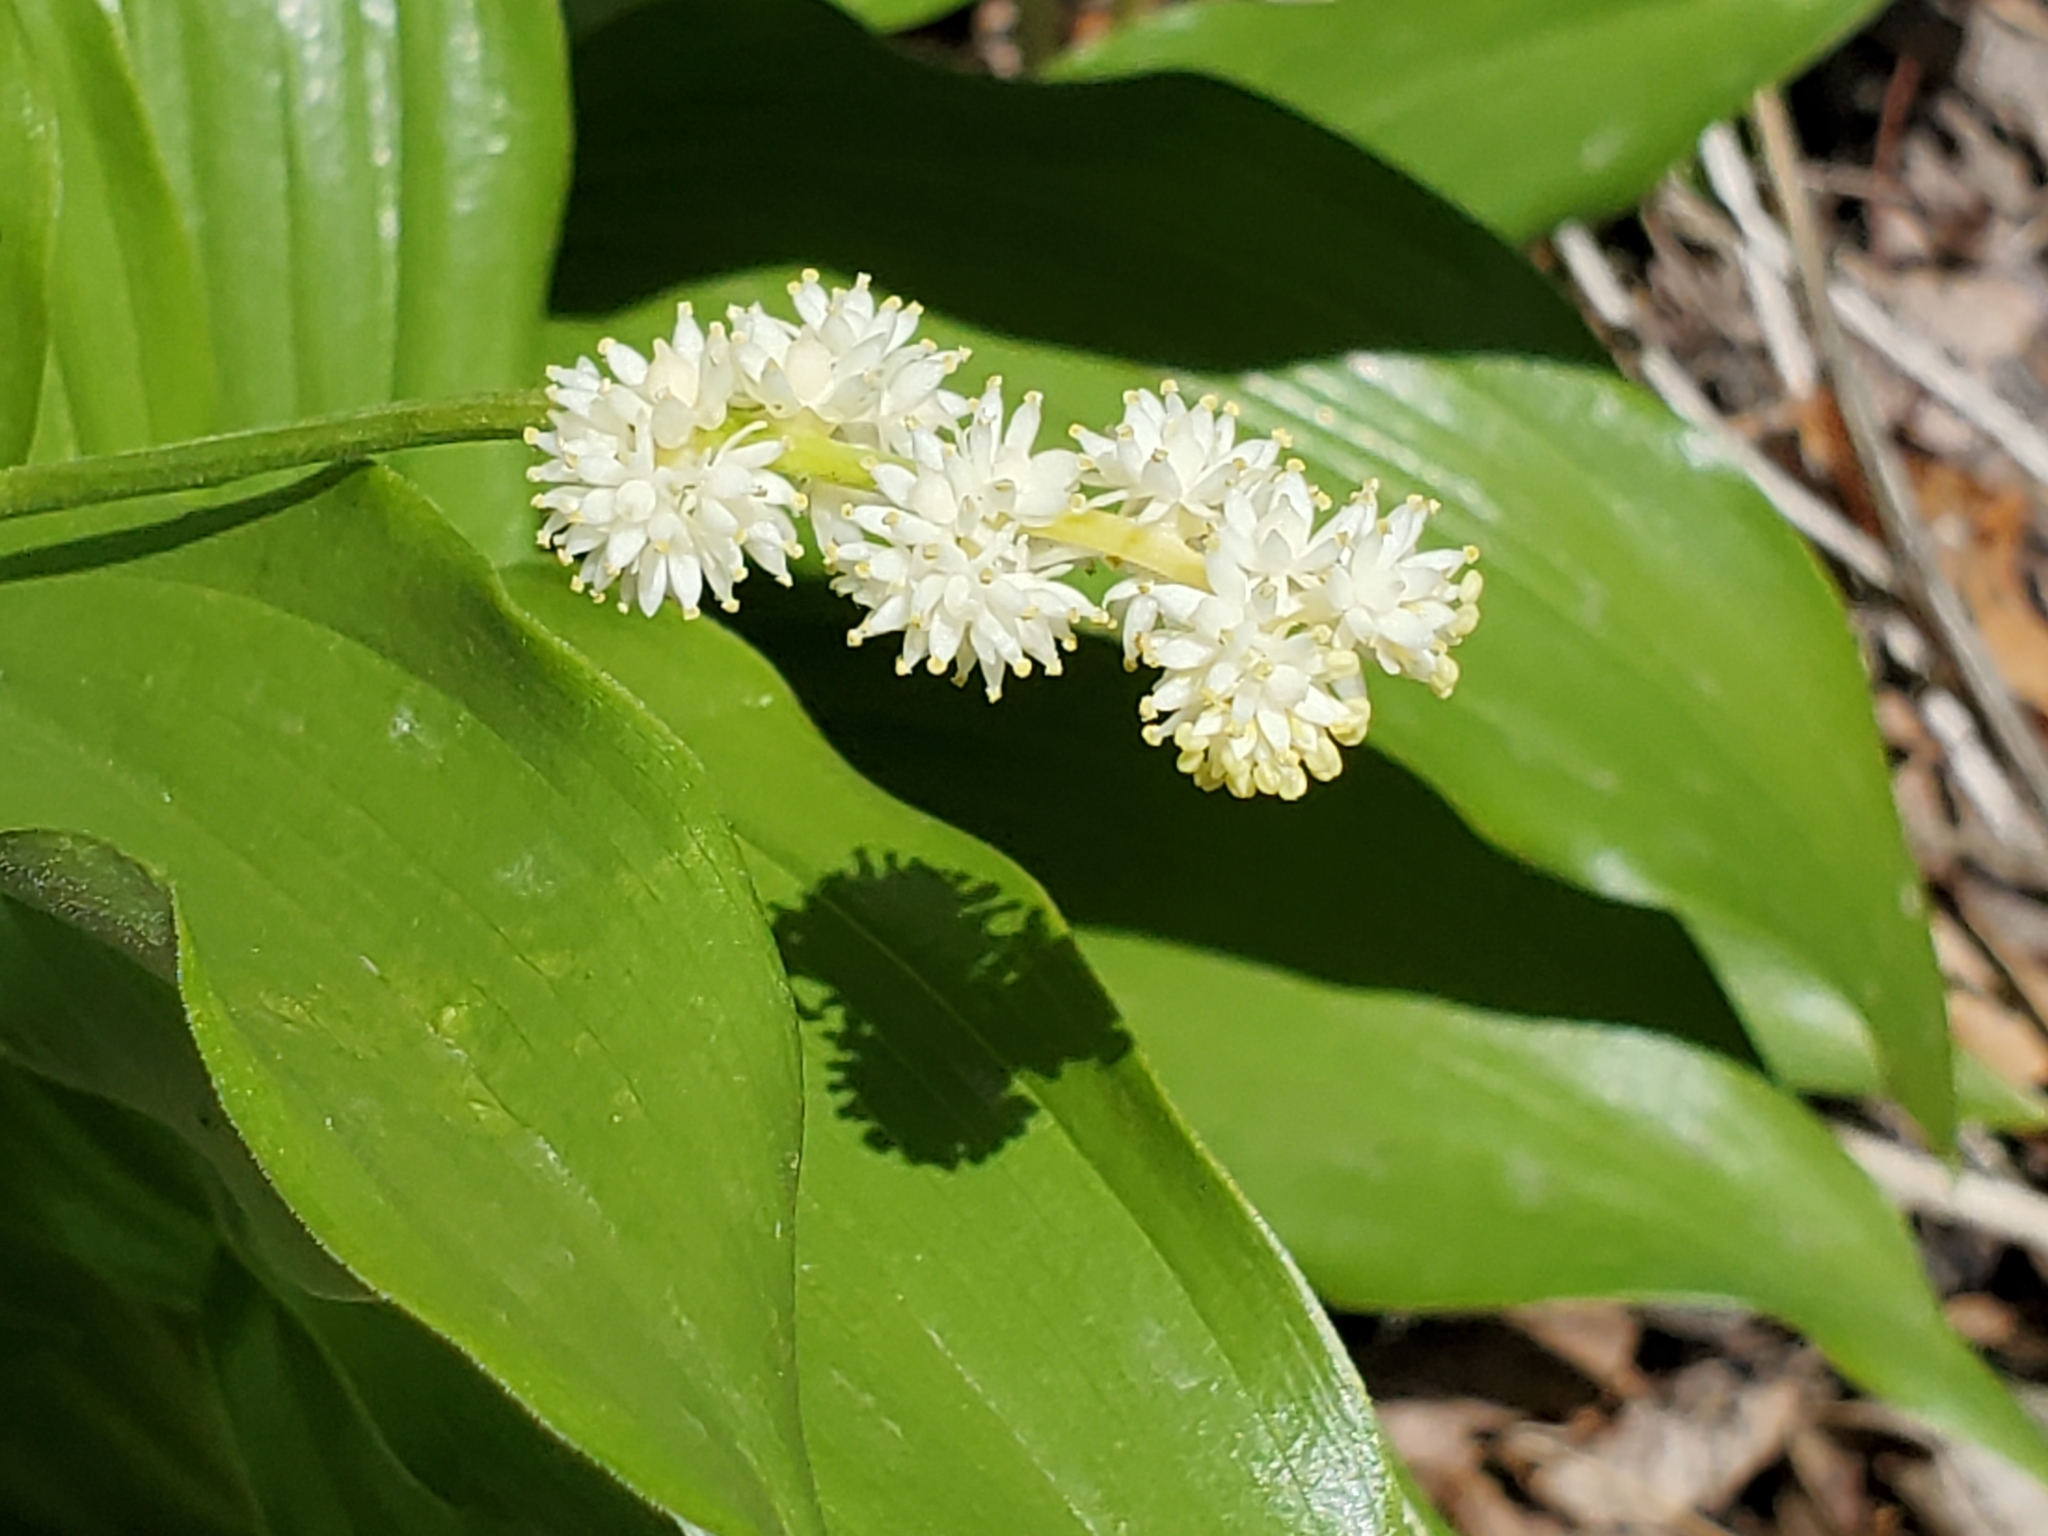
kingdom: Plantae
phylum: Tracheophyta
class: Liliopsida
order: Asparagales
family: Asparagaceae
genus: Maianthemum
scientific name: Maianthemum racemosum
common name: False spikenard
